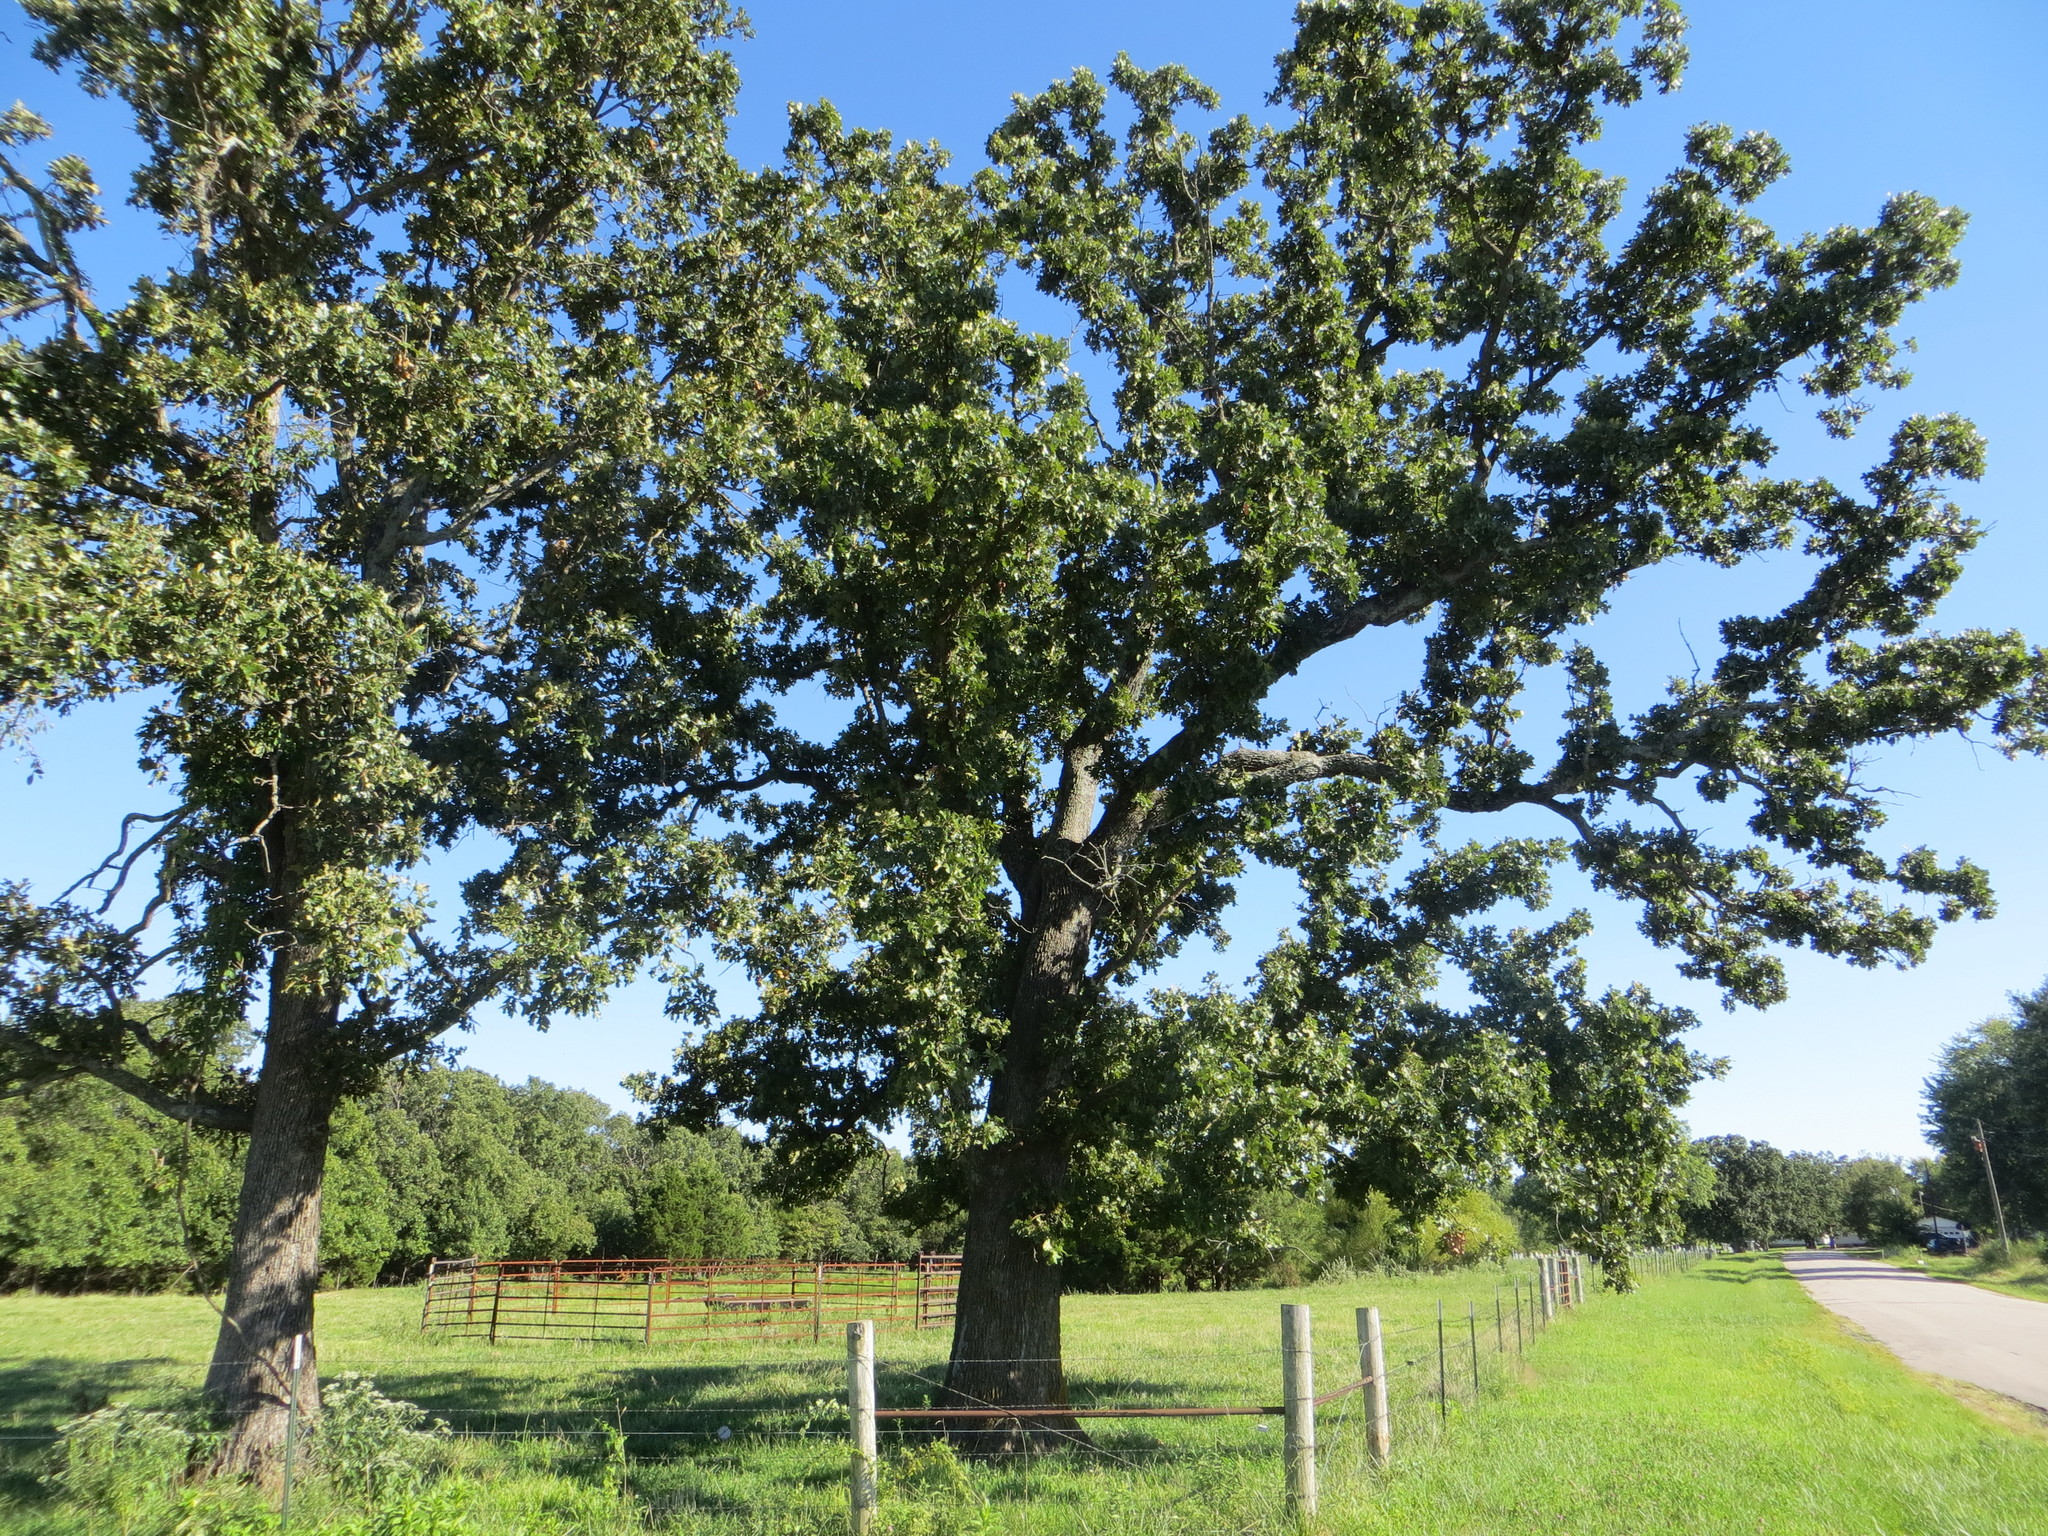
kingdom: Plantae
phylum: Tracheophyta
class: Magnoliopsida
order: Fagales
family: Fagaceae
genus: Quercus
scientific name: Quercus stellata
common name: Post oak
